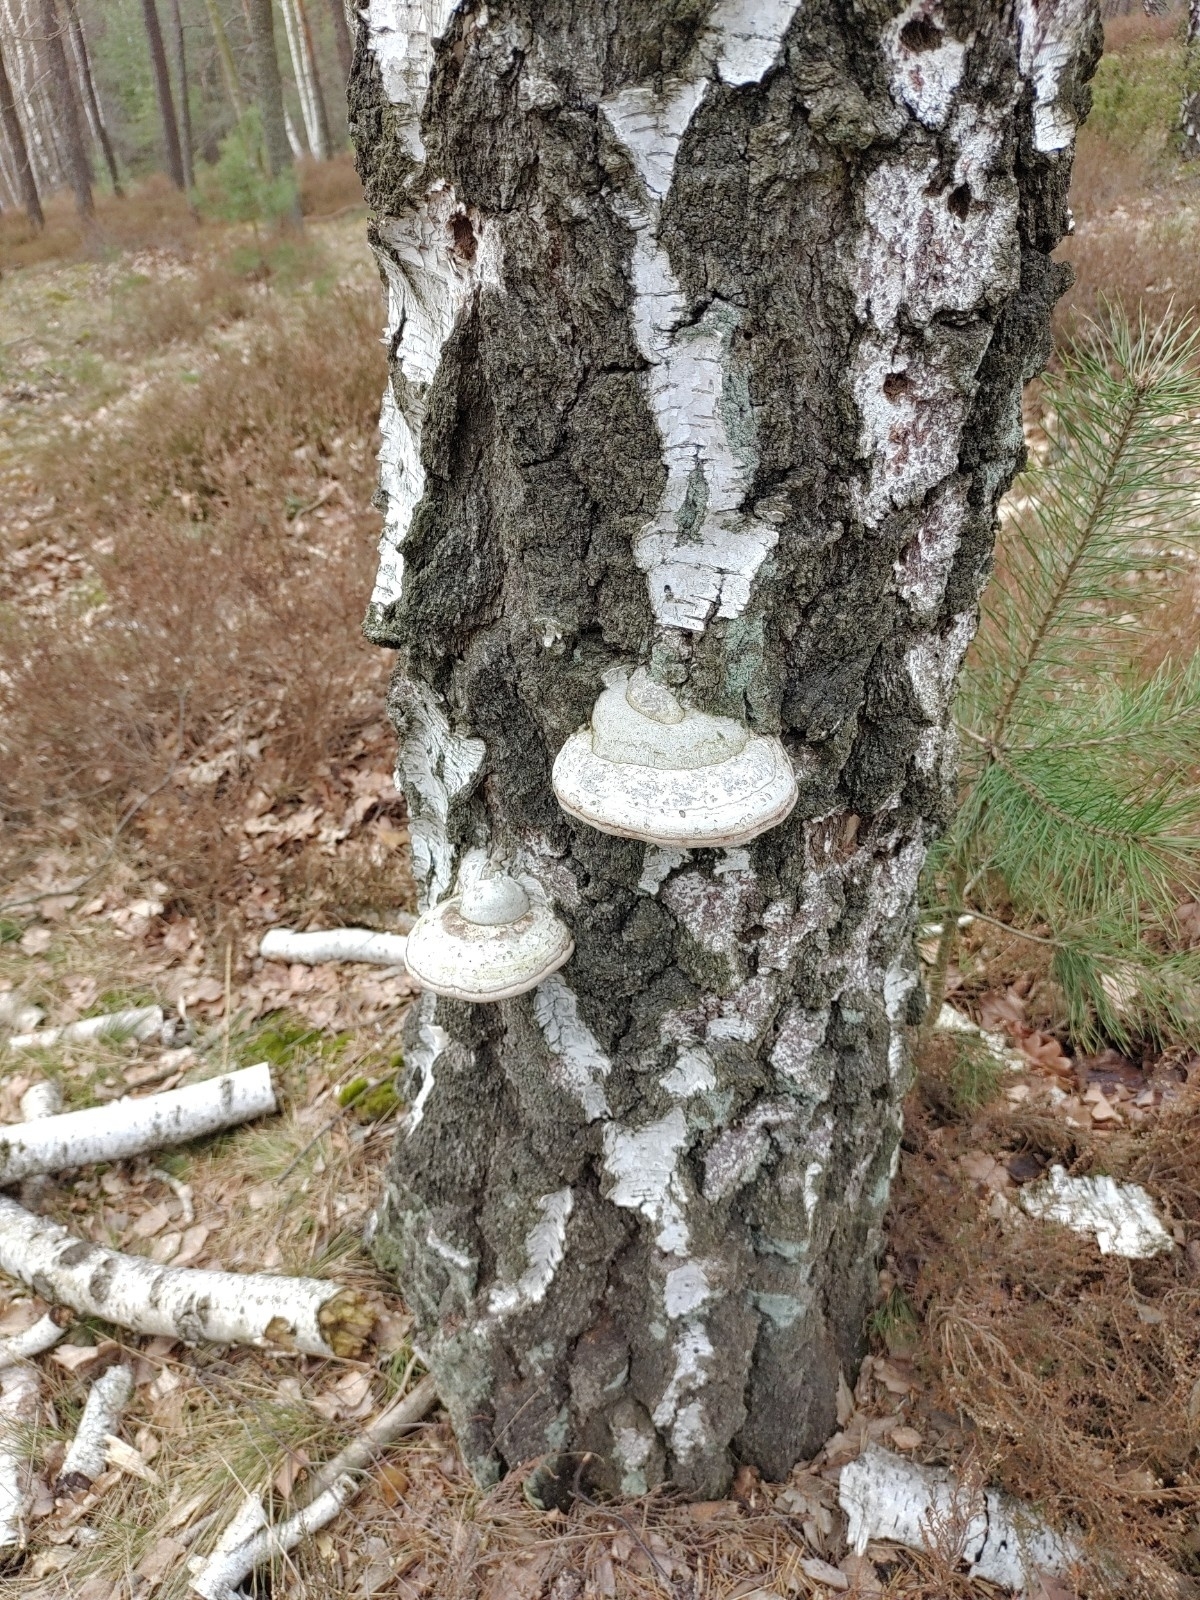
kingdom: Fungi
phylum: Basidiomycota
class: Agaricomycetes
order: Polyporales
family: Polyporaceae
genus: Fomes
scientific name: Fomes fomentarius
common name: Hoof fungus
